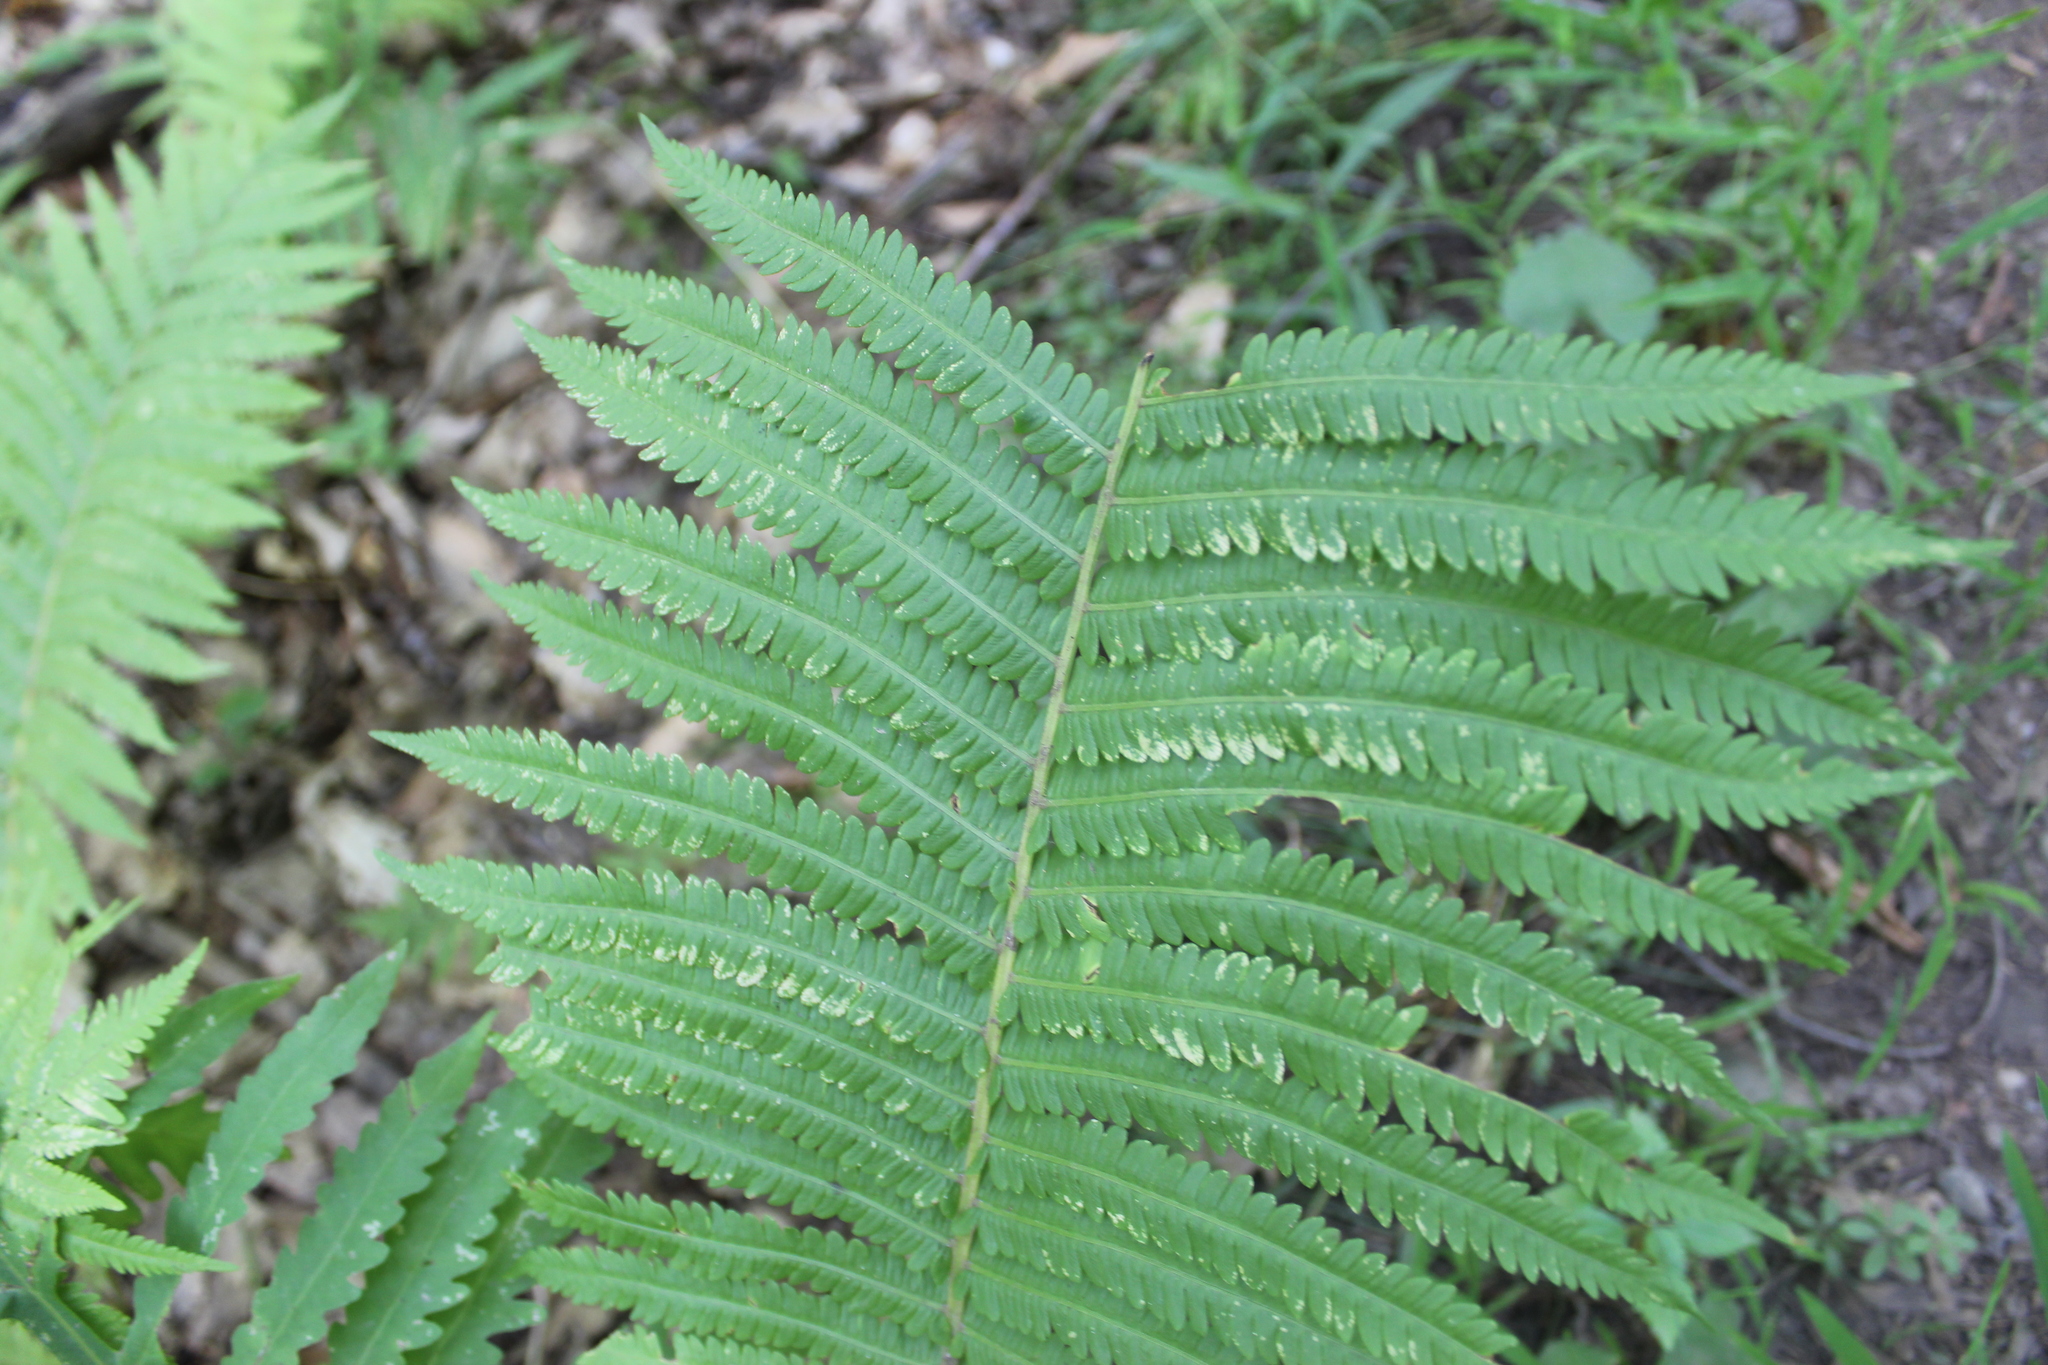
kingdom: Plantae
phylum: Tracheophyta
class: Polypodiopsida
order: Polypodiales
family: Onocleaceae
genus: Matteuccia
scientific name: Matteuccia struthiopteris
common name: Ostrich fern
